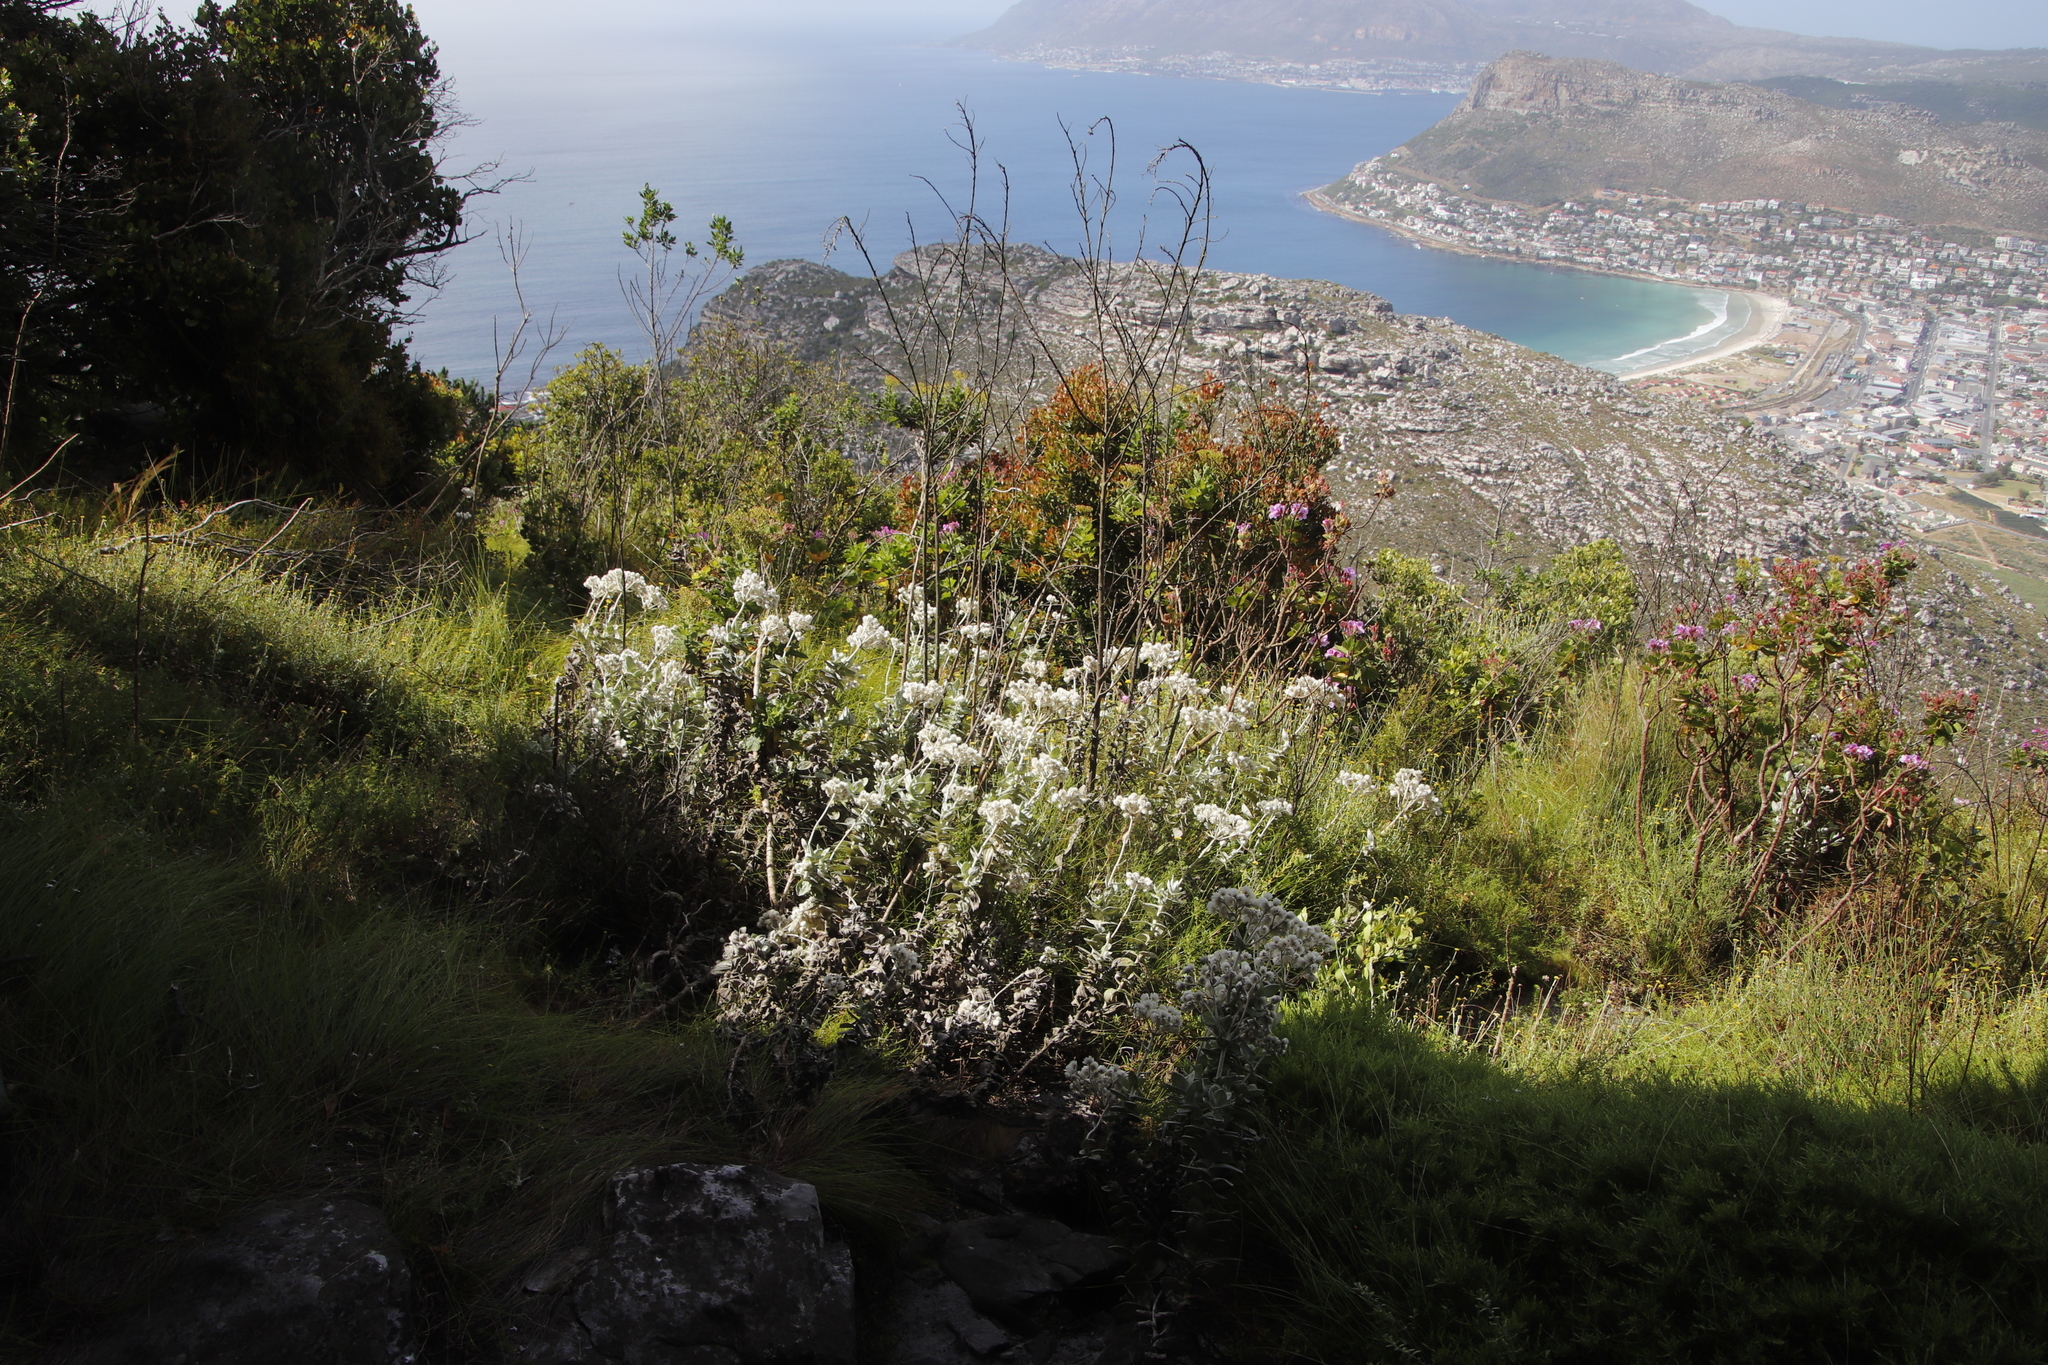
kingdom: Plantae
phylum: Tracheophyta
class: Magnoliopsida
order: Celastrales
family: Celastraceae
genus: Elaeodendron
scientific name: Elaeodendron schinoides
